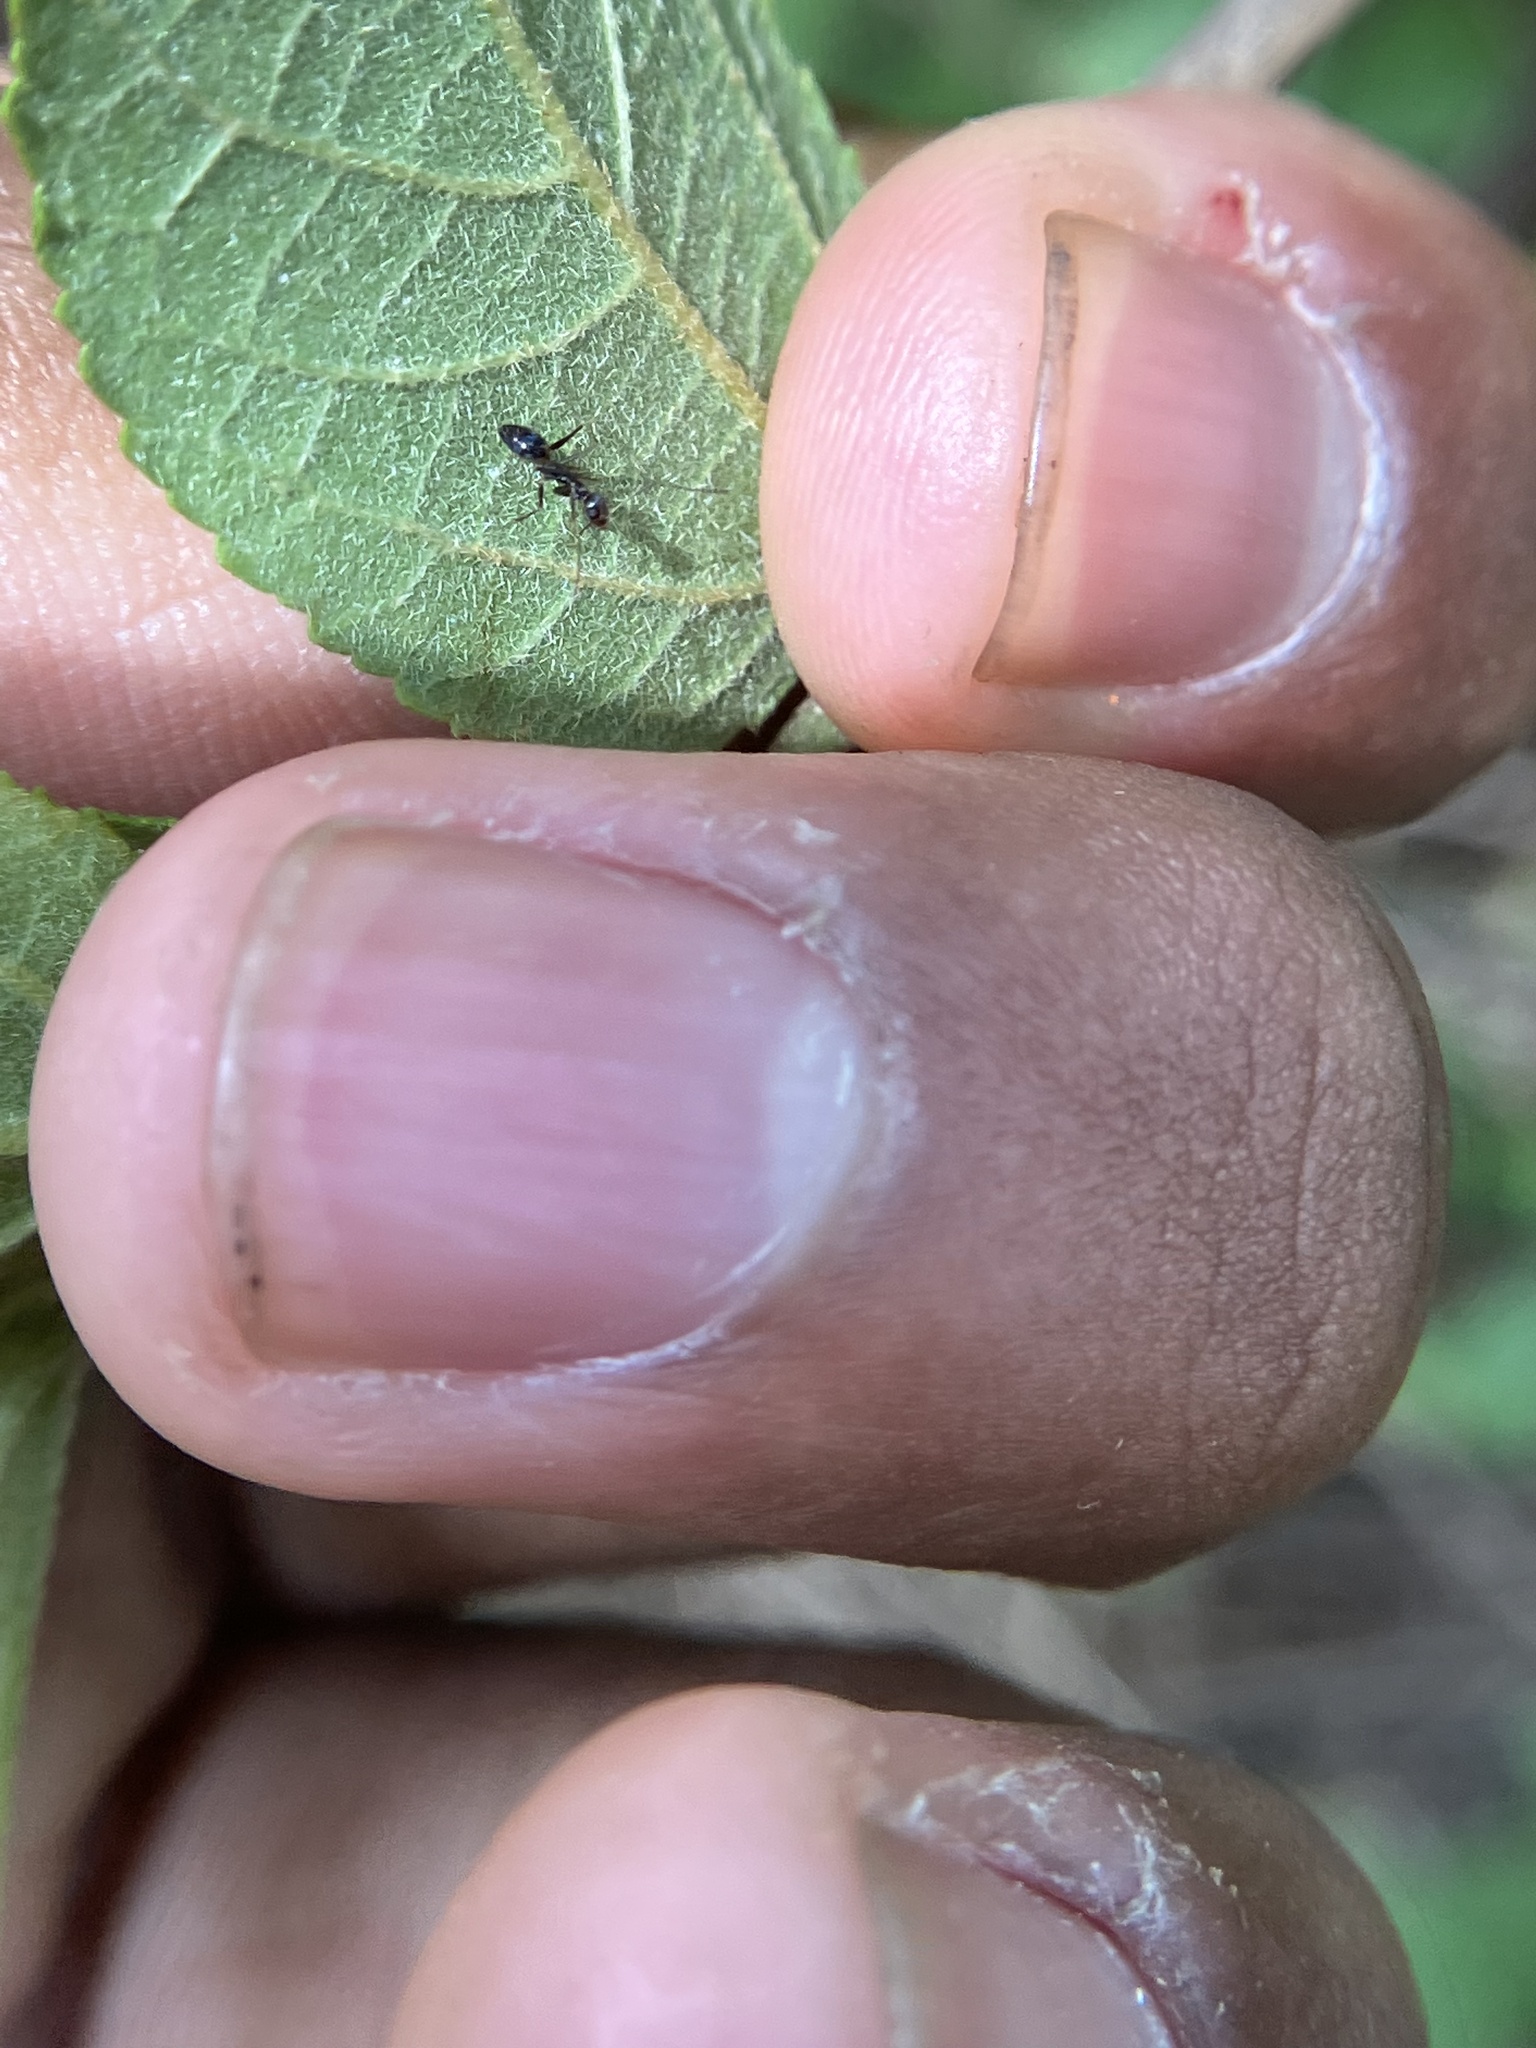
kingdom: Animalia
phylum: Arthropoda
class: Insecta
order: Hymenoptera
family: Formicidae
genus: Paratrechina
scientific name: Paratrechina longicornis
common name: Longhorned crazy ant
